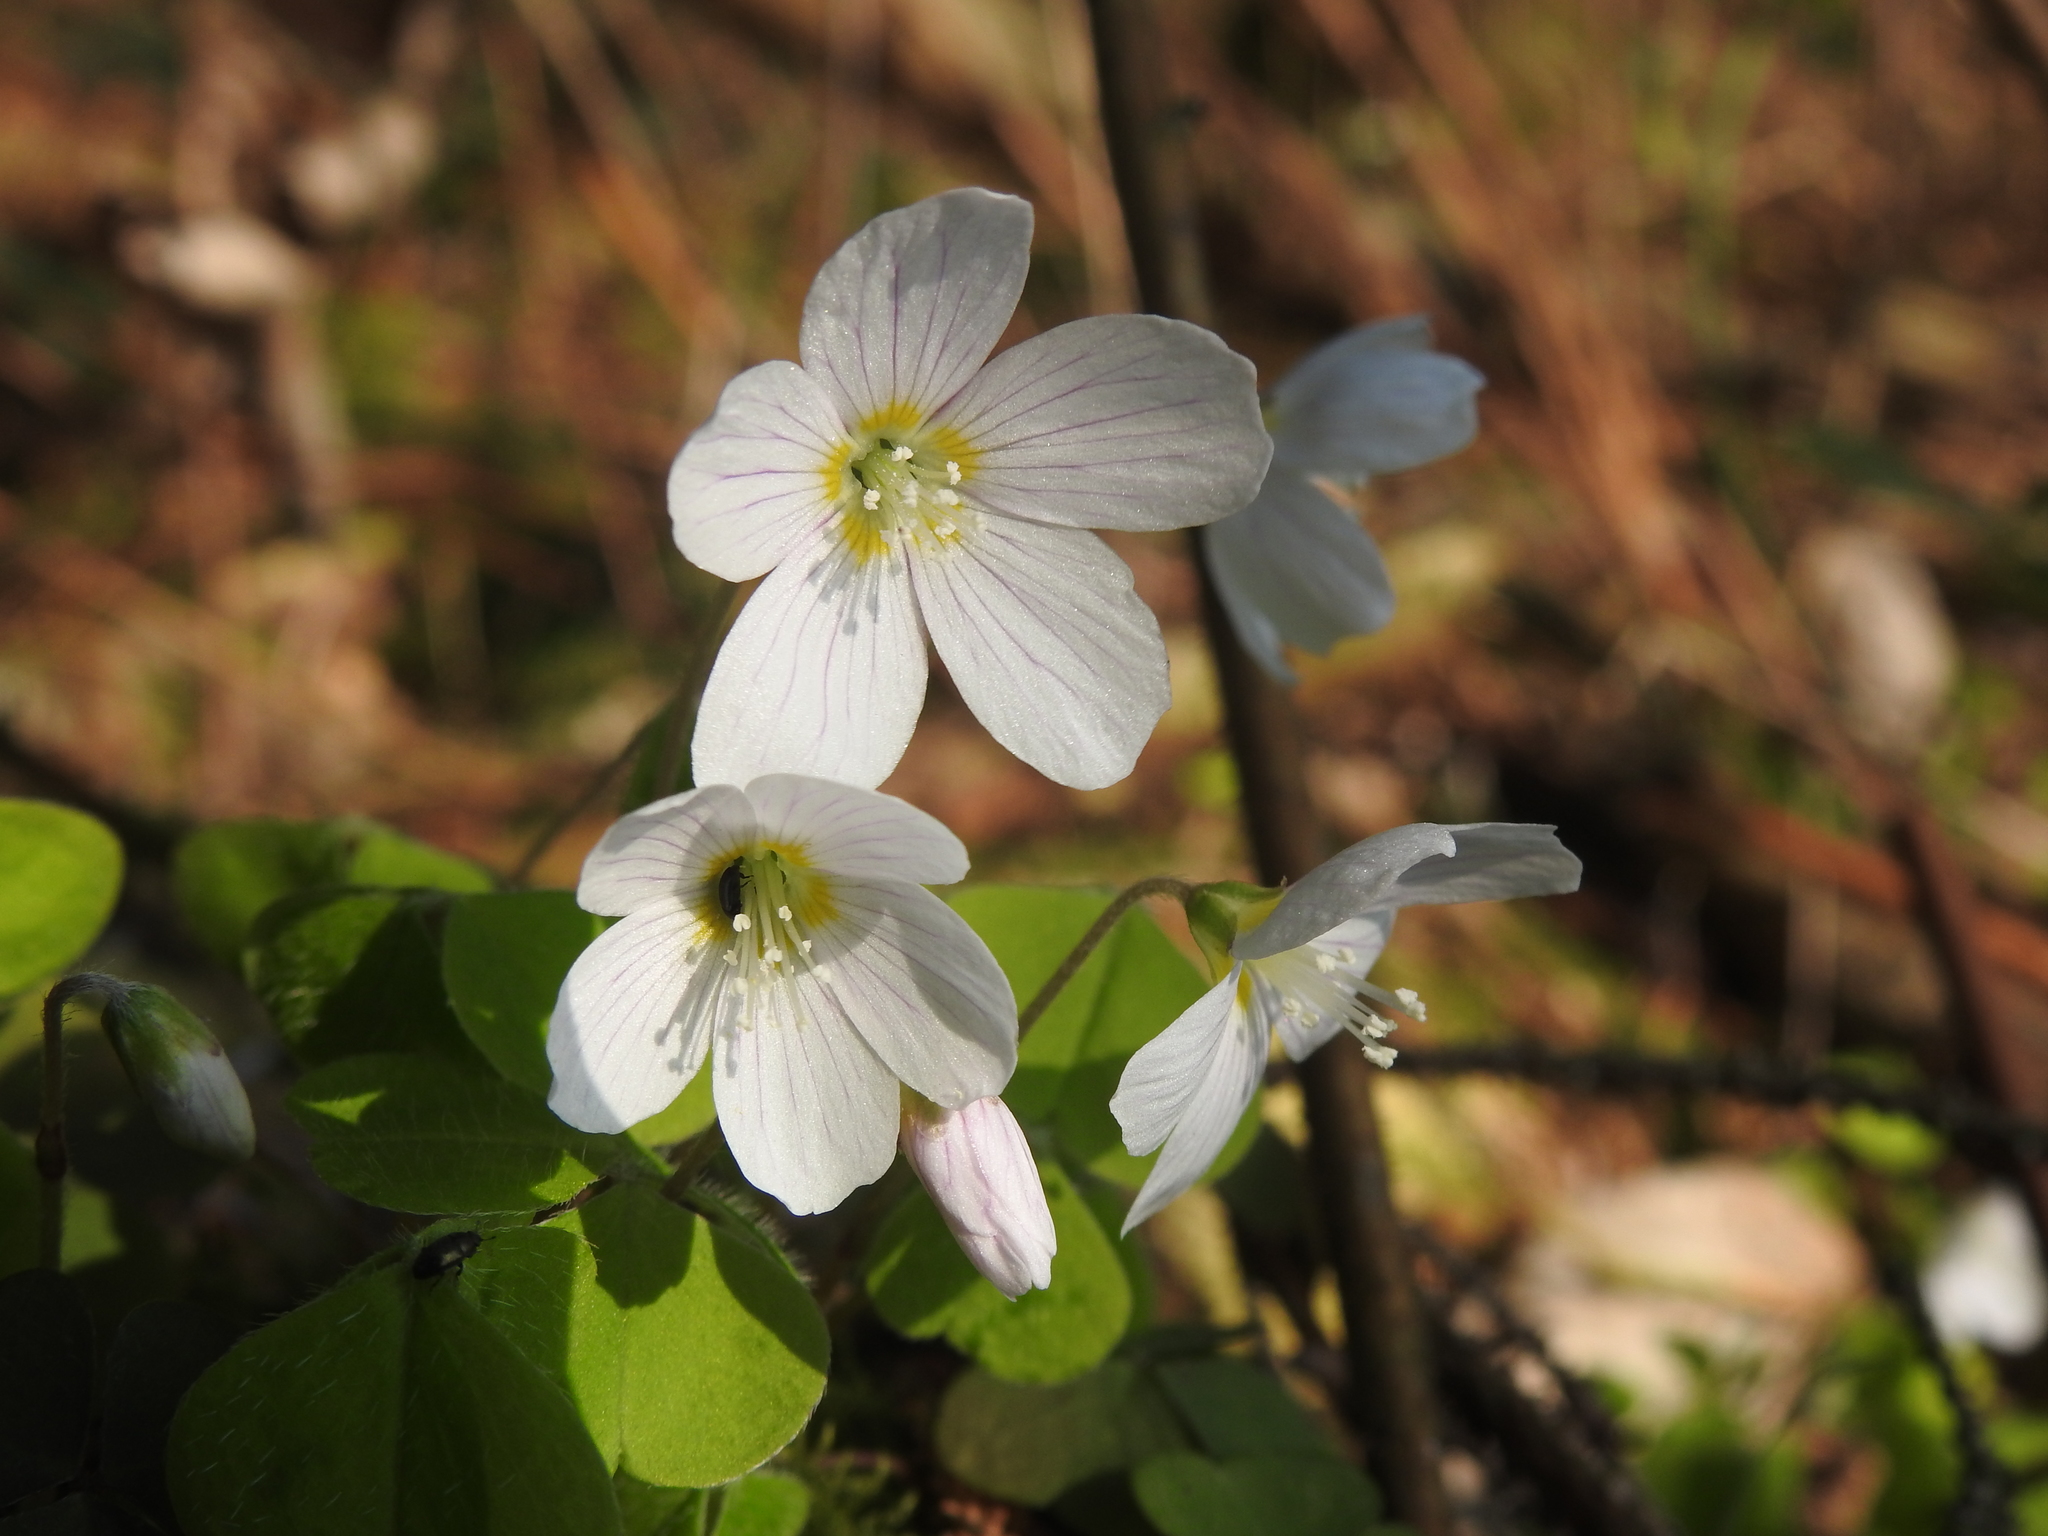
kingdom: Plantae
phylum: Tracheophyta
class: Magnoliopsida
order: Oxalidales
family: Oxalidaceae
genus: Oxalis
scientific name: Oxalis acetosella
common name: Wood-sorrel
